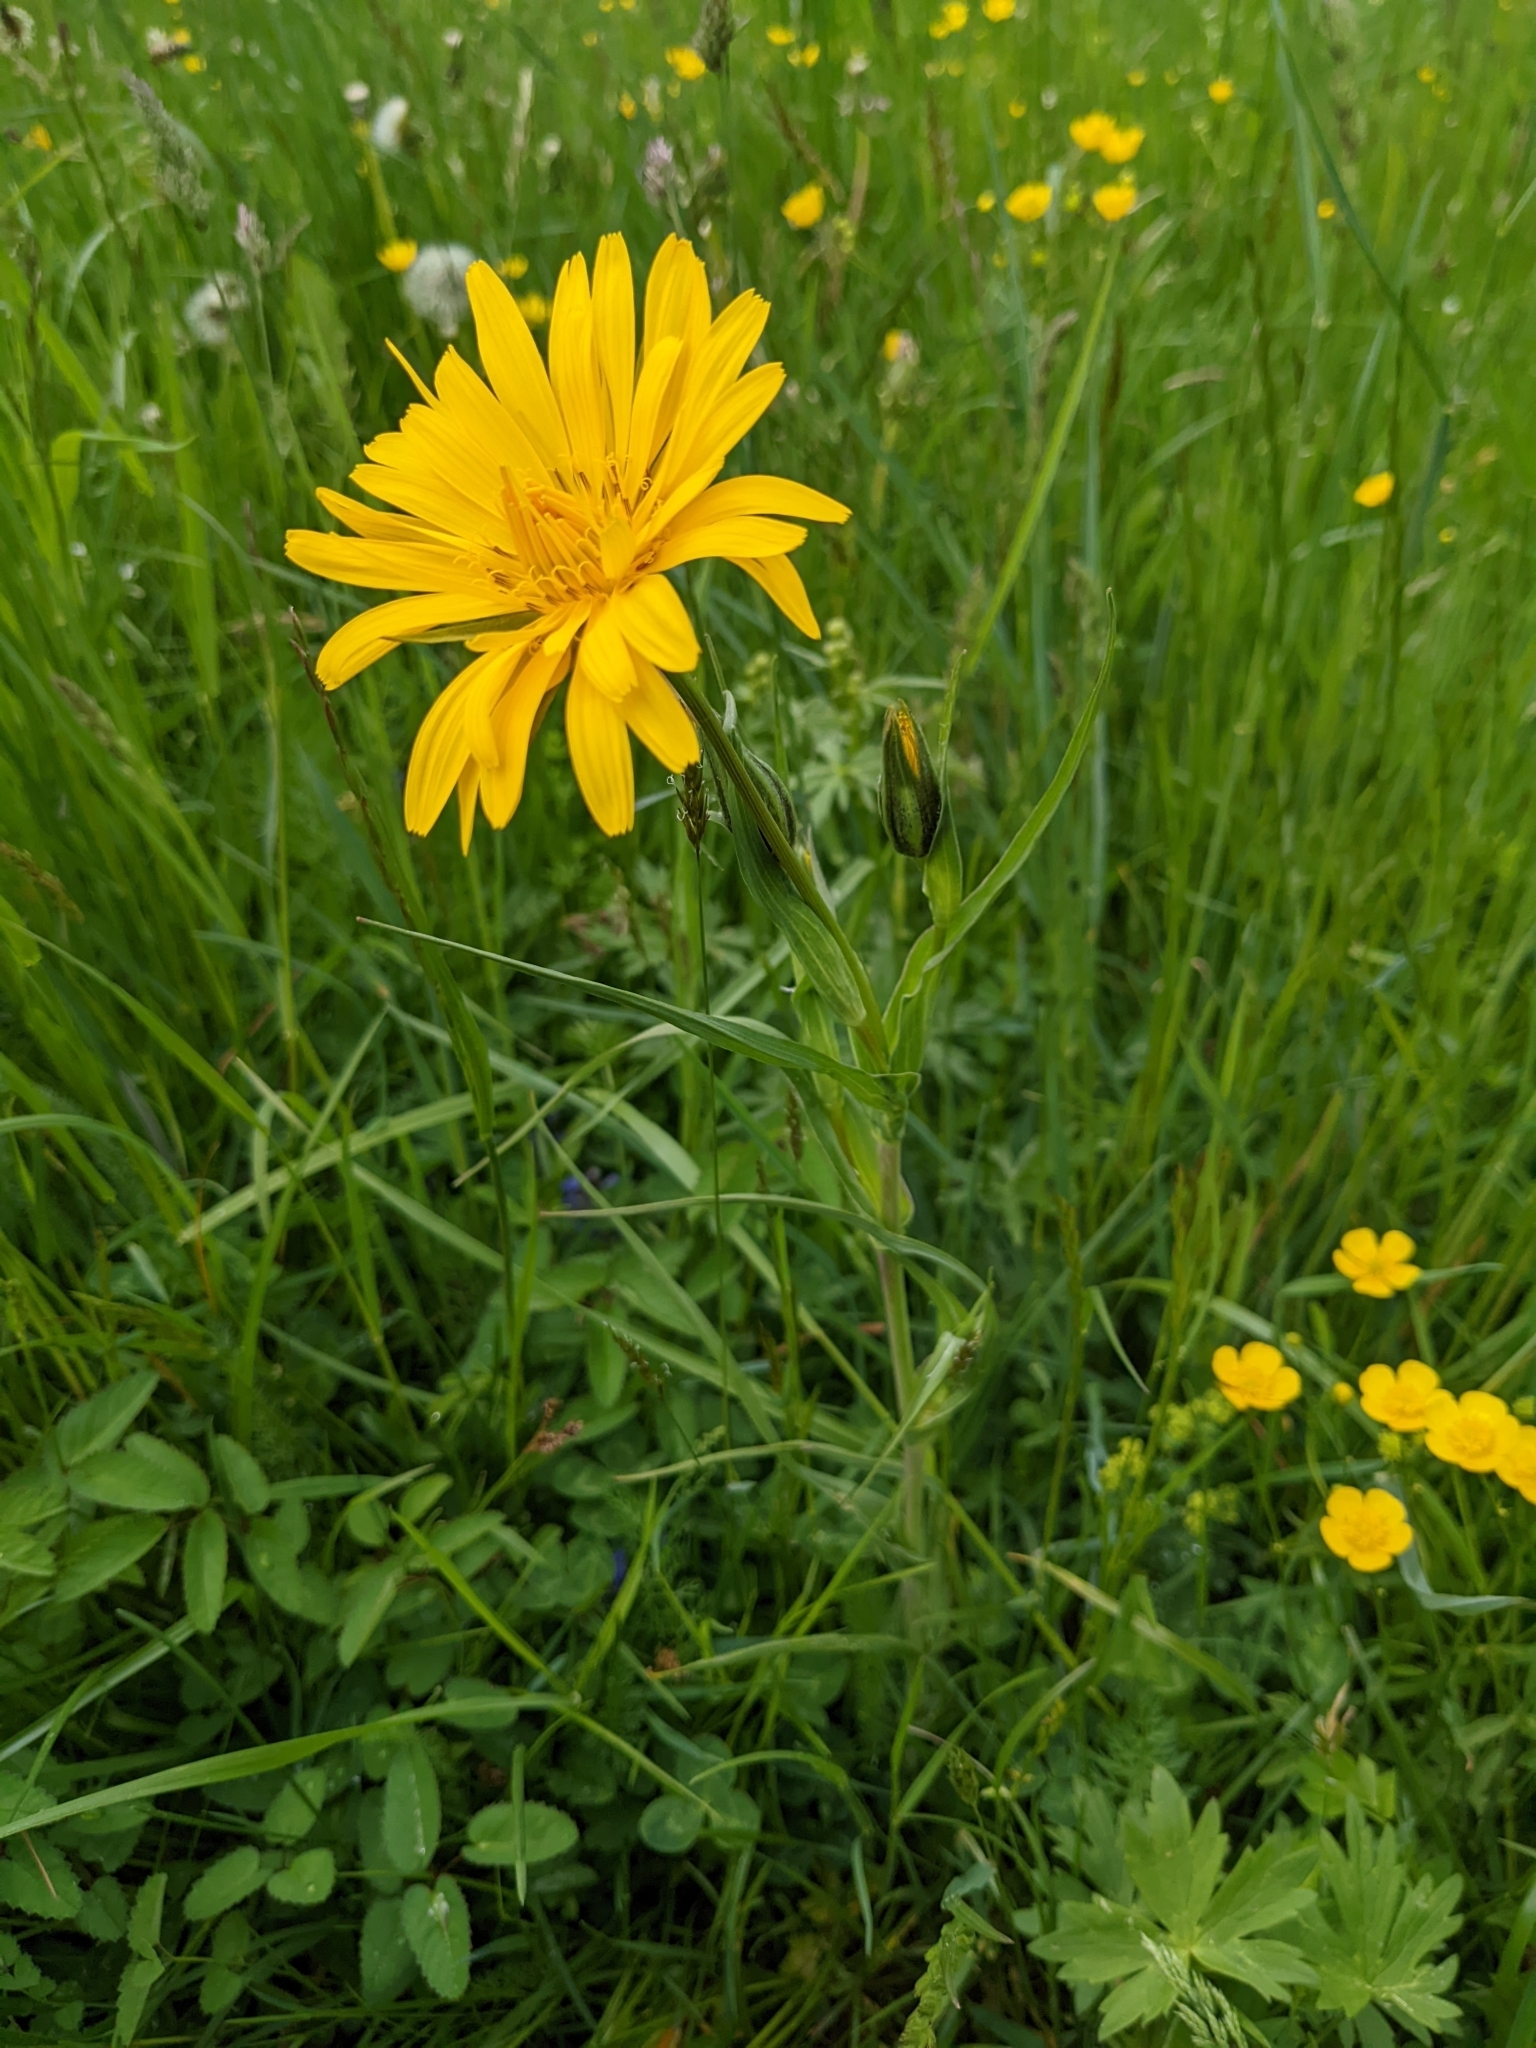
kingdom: Plantae
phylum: Tracheophyta
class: Magnoliopsida
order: Asterales
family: Asteraceae
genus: Tragopogon
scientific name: Tragopogon orientalis
